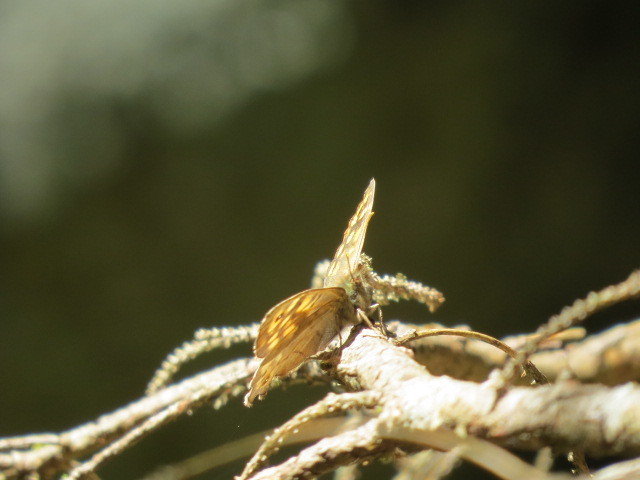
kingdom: Animalia
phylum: Arthropoda
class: Insecta
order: Lepidoptera
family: Nymphalidae
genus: Pararge
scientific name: Pararge aegeria
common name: Speckled wood
